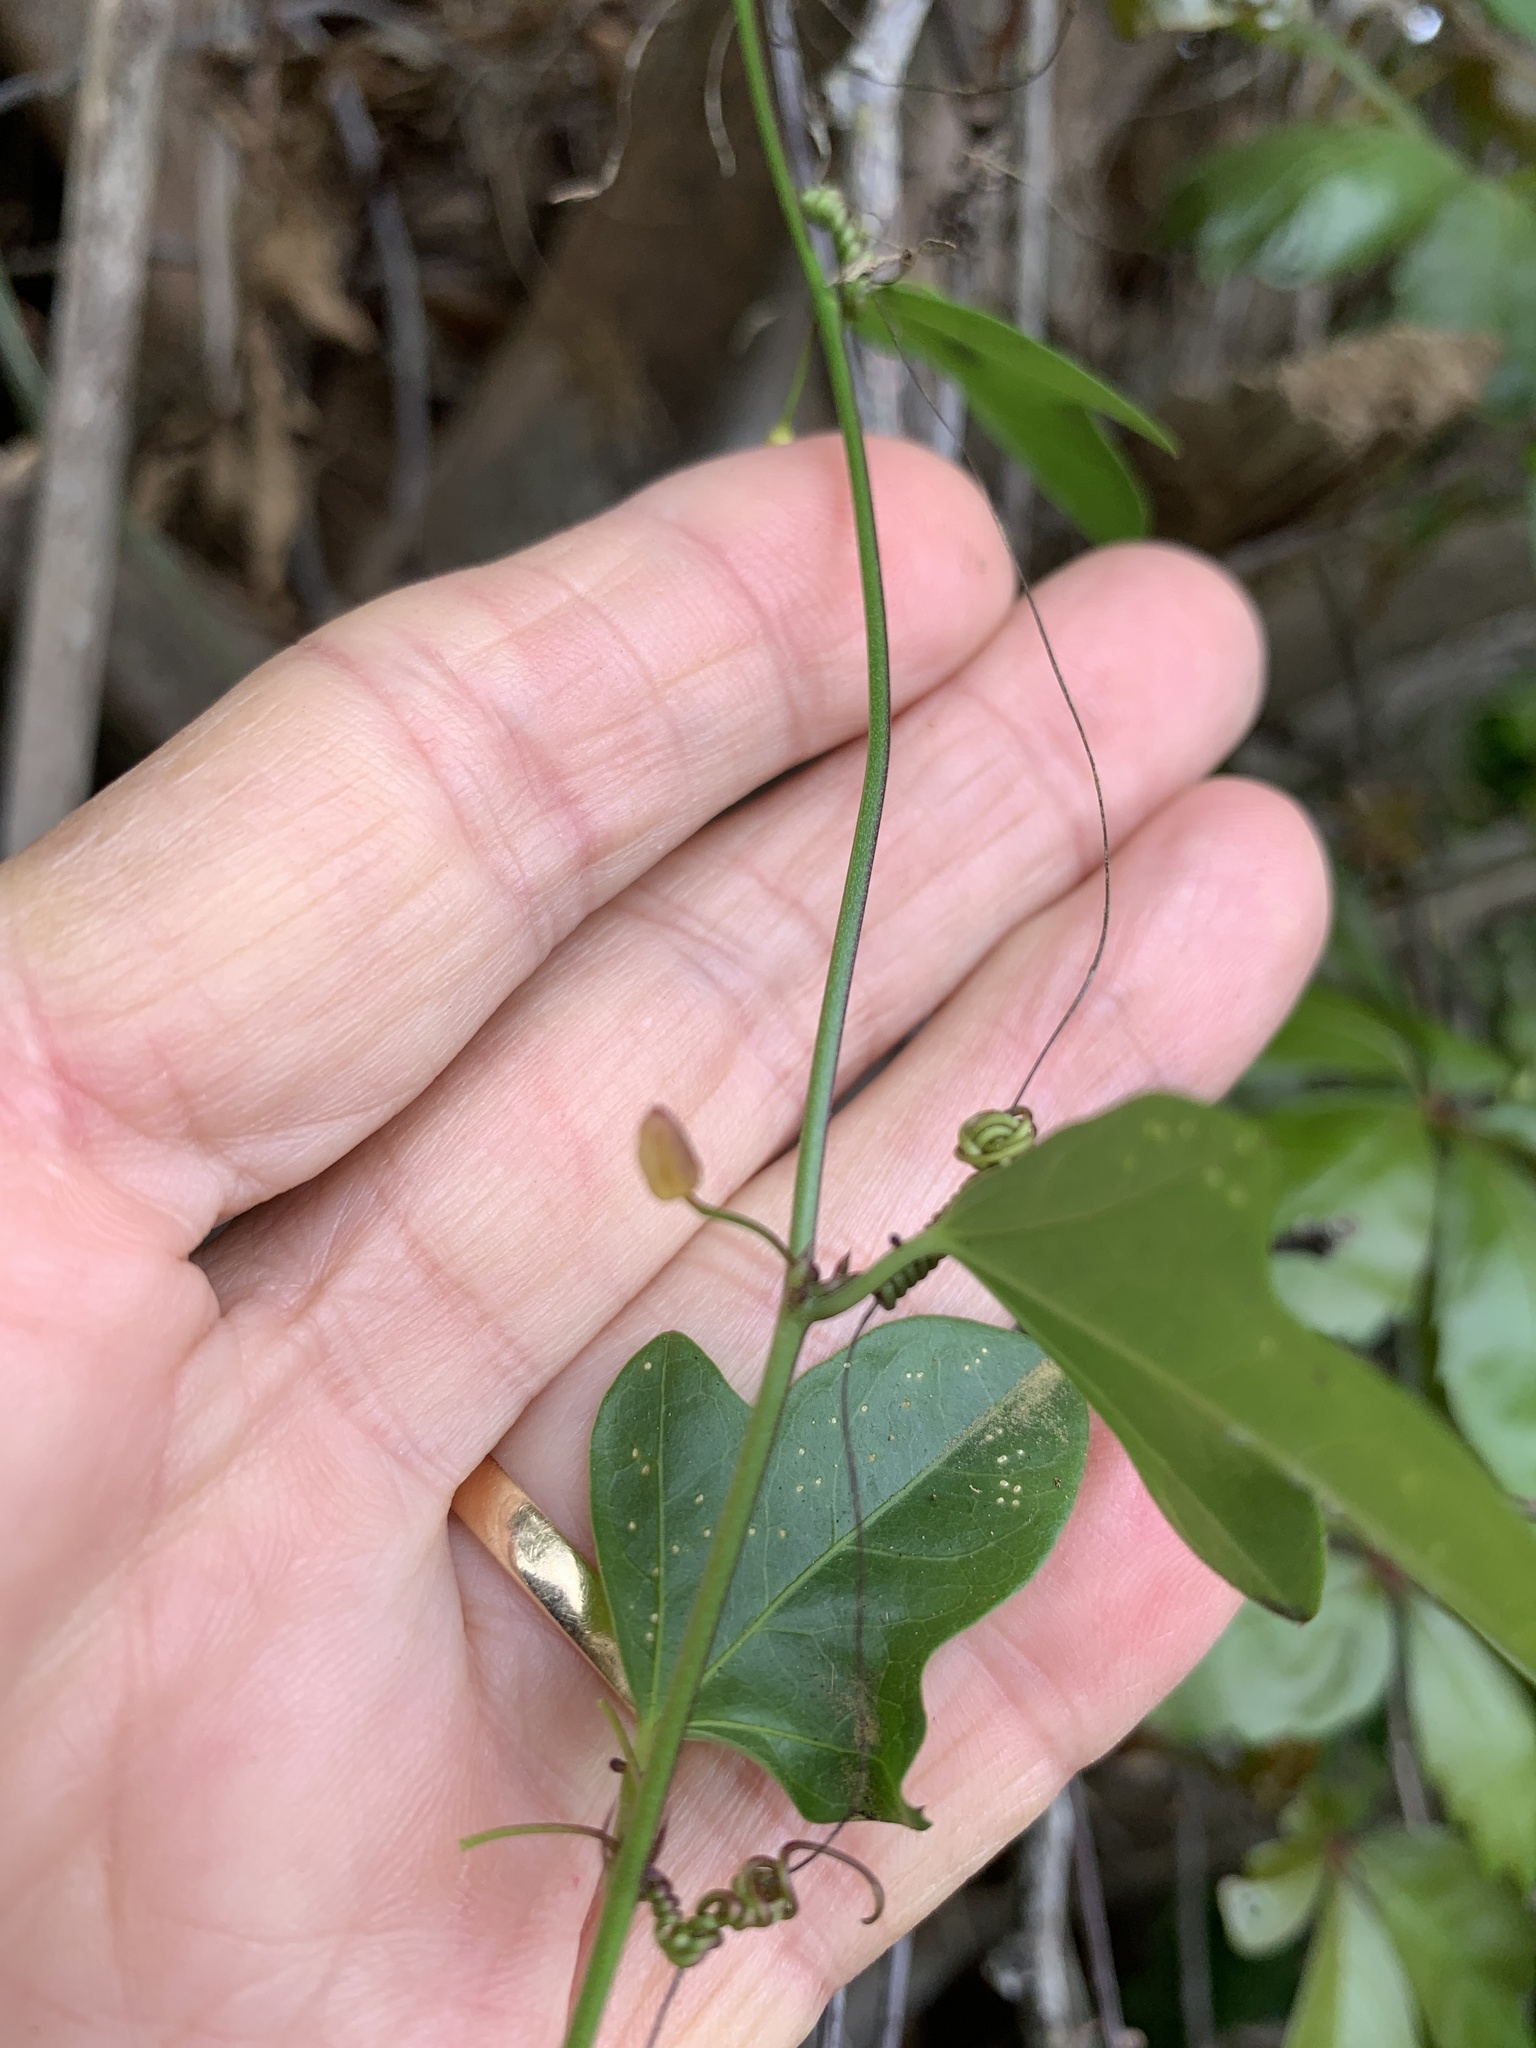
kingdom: Plantae
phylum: Tracheophyta
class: Magnoliopsida
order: Malpighiales
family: Passifloraceae
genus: Passiflora
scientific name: Passiflora pallida
